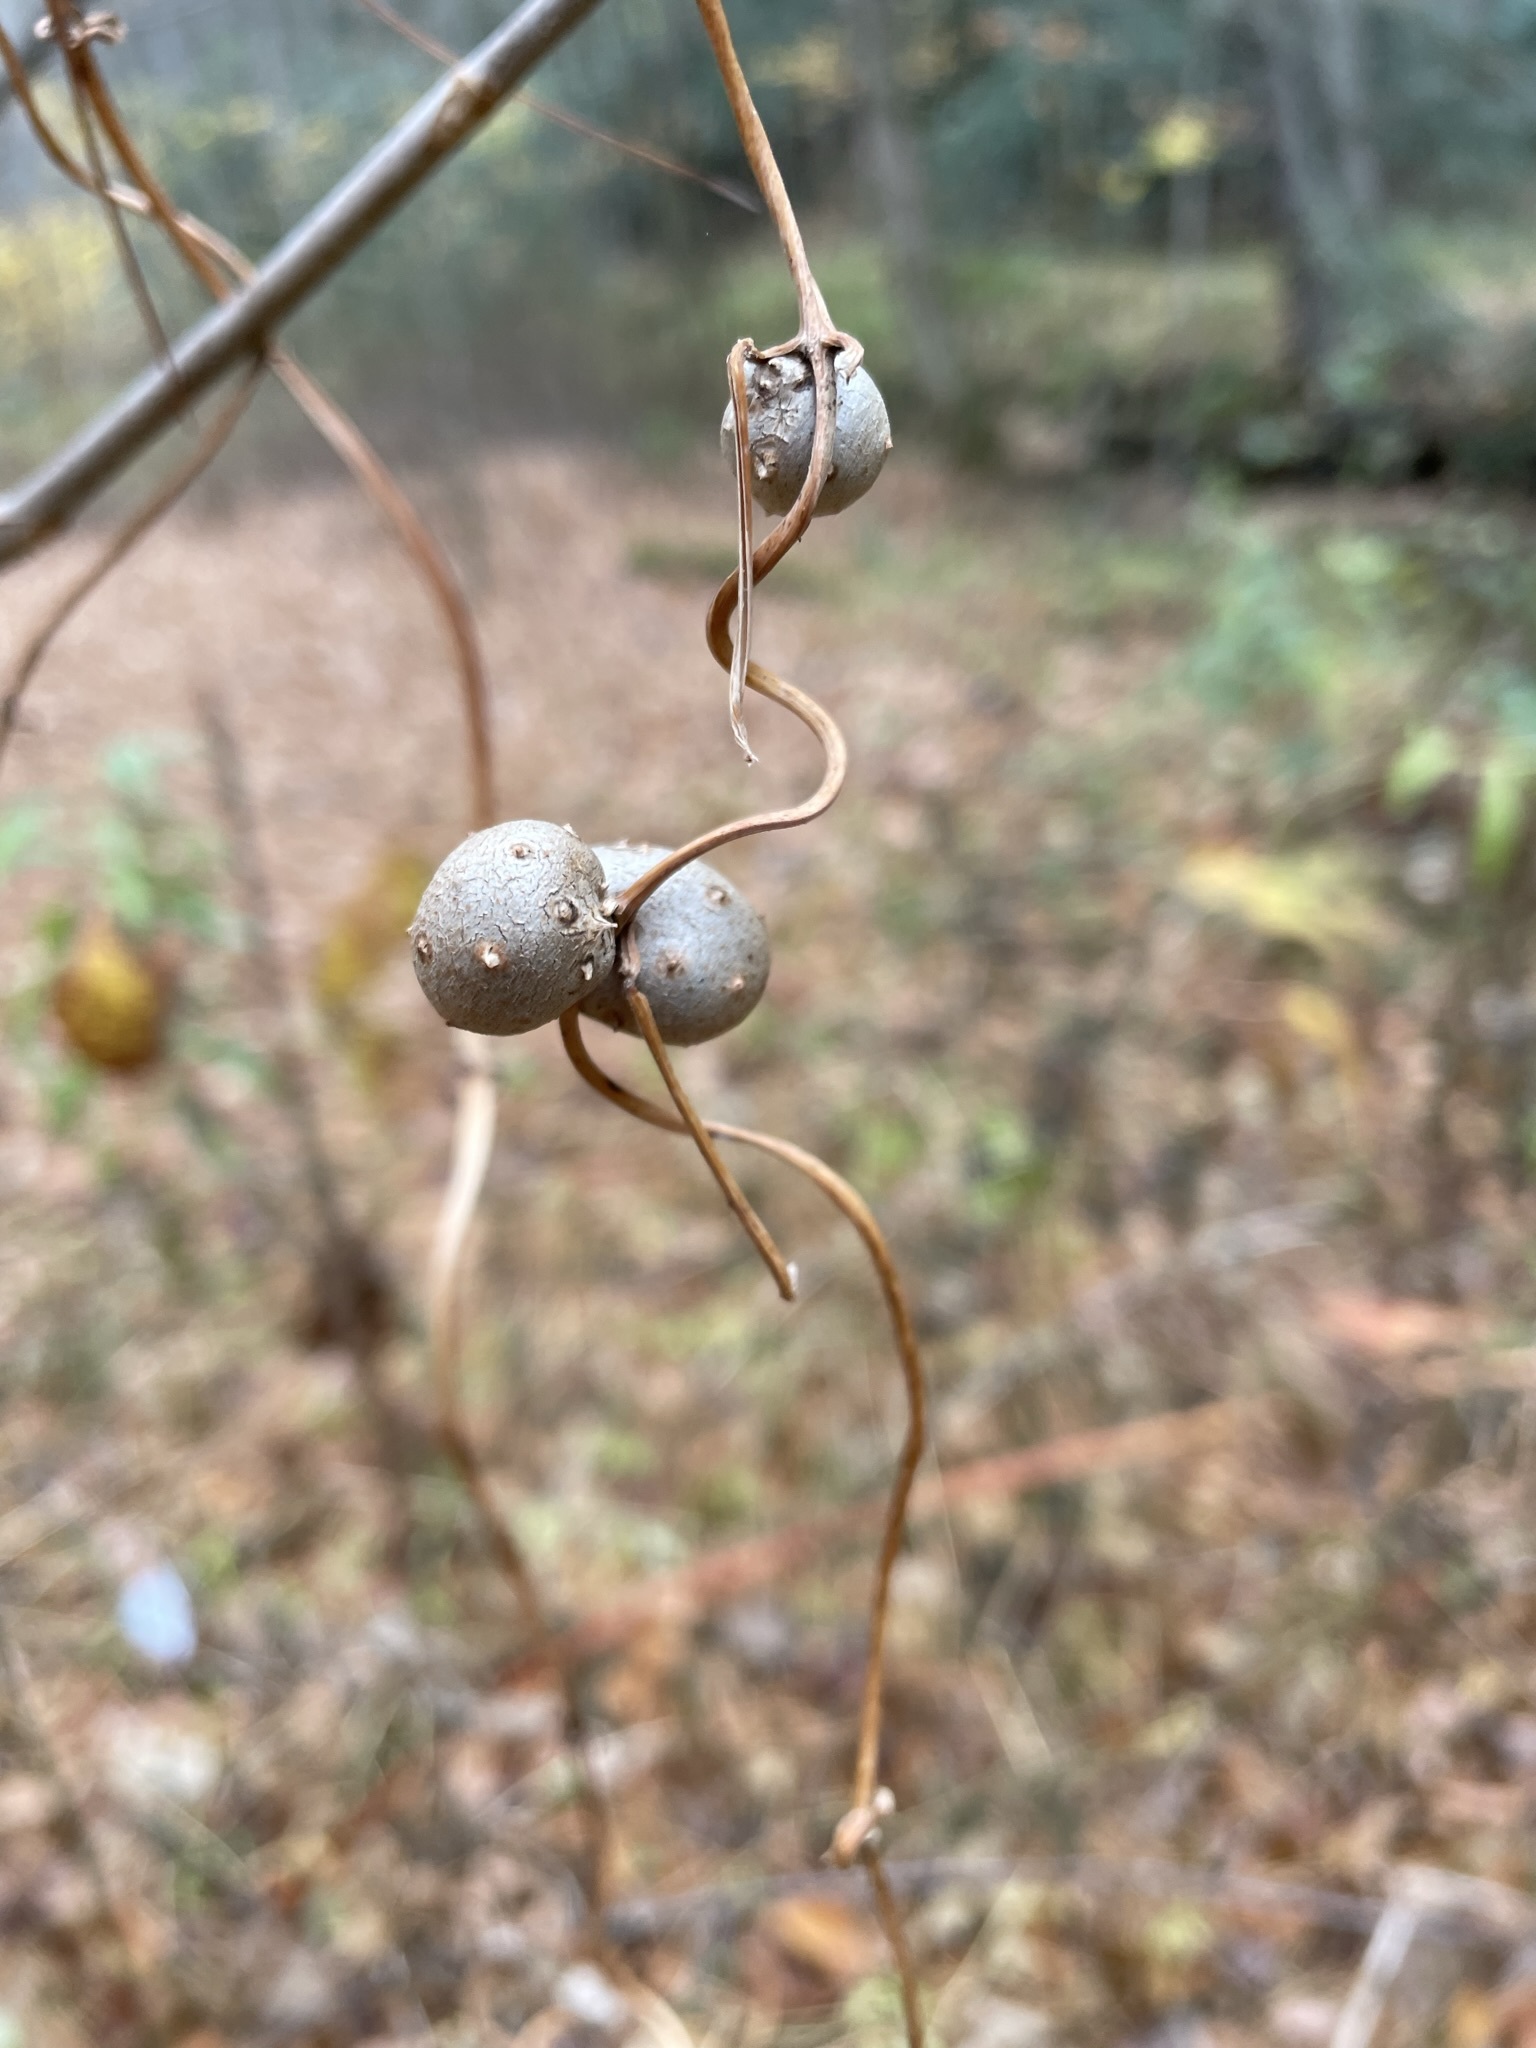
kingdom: Plantae
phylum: Tracheophyta
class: Liliopsida
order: Dioscoreales
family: Dioscoreaceae
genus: Dioscorea
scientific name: Dioscorea polystachya
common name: Chinese yam
